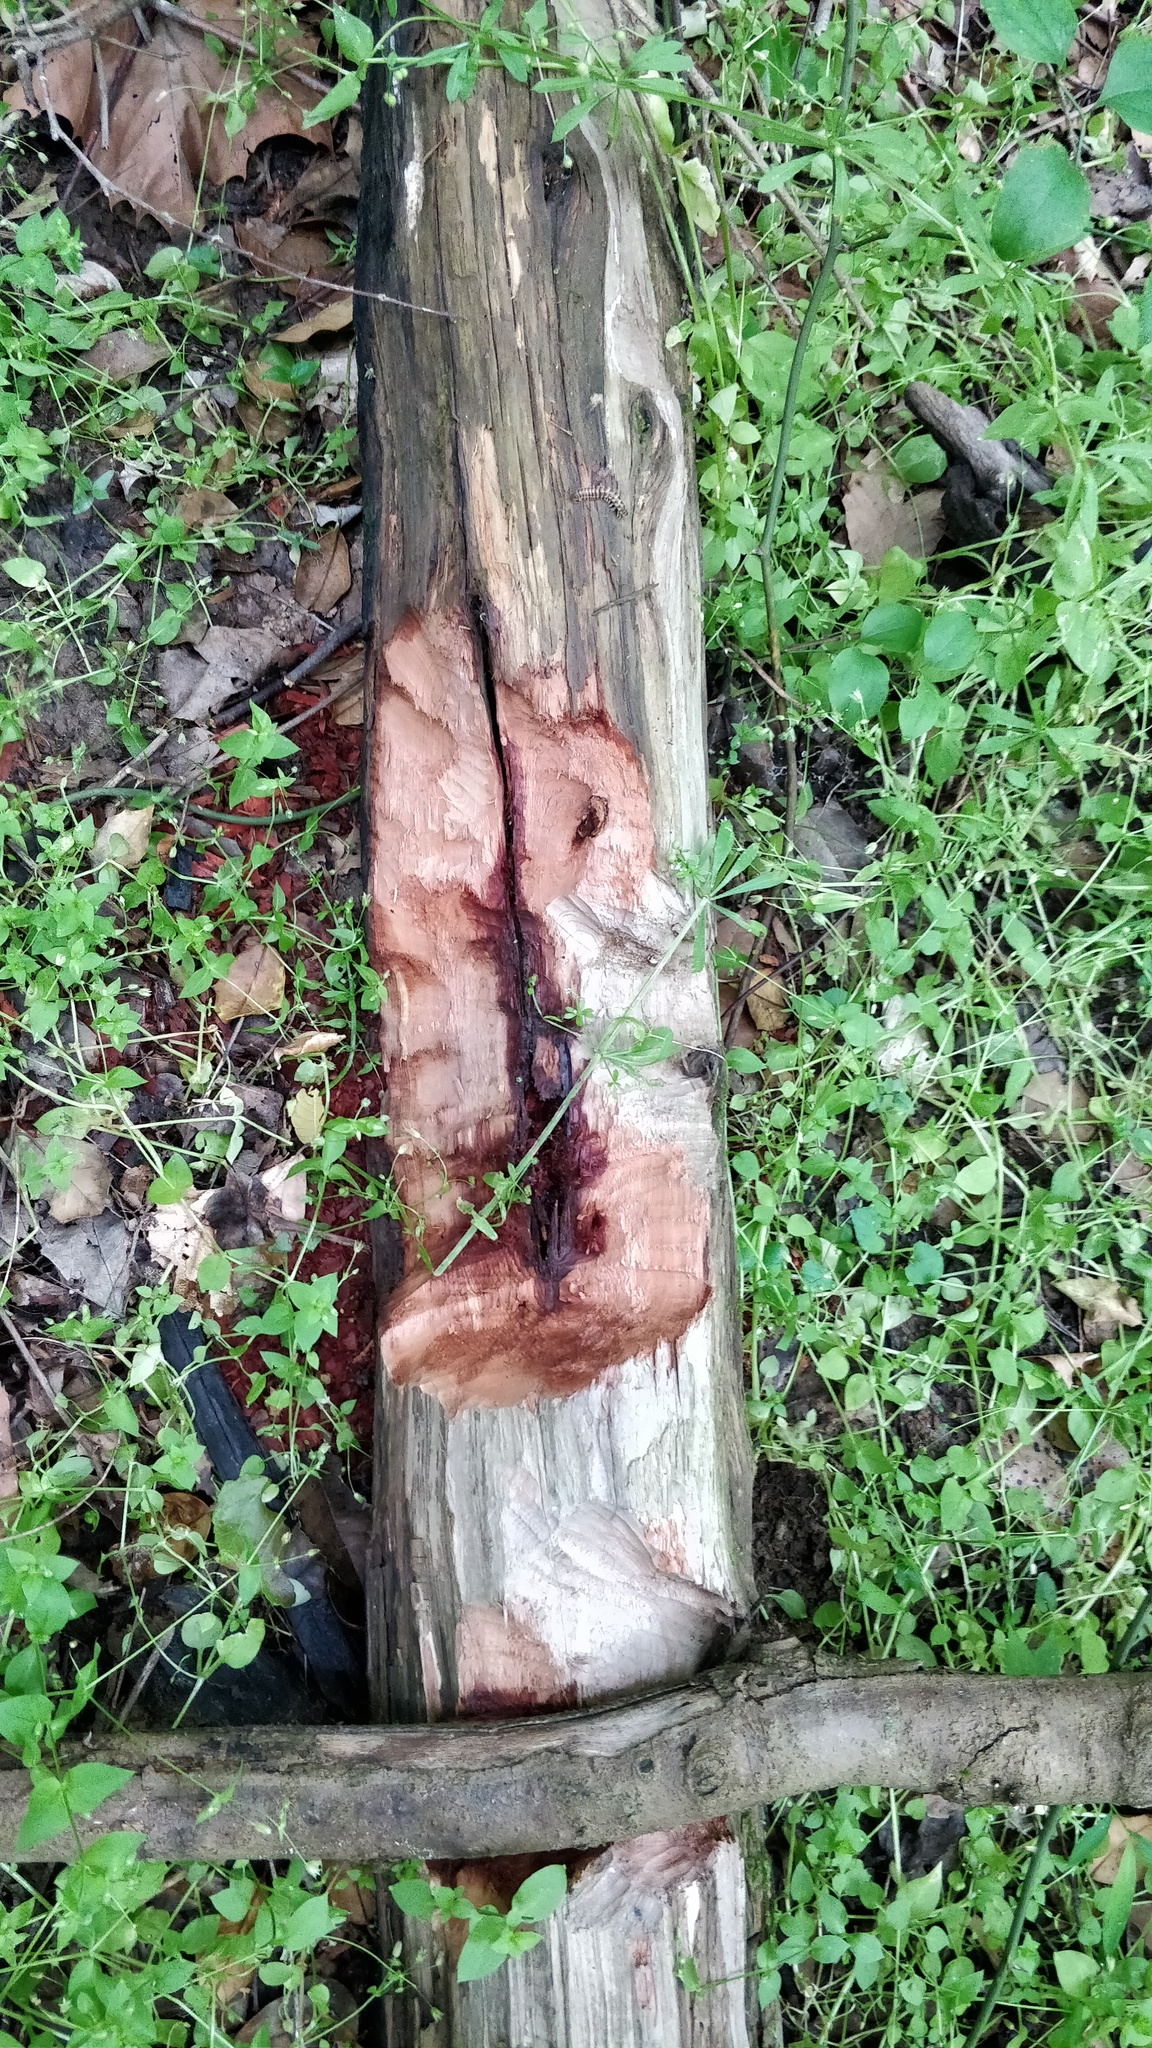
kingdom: Animalia
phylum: Chordata
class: Mammalia
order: Rodentia
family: Castoridae
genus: Castor
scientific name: Castor canadensis
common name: American beaver
